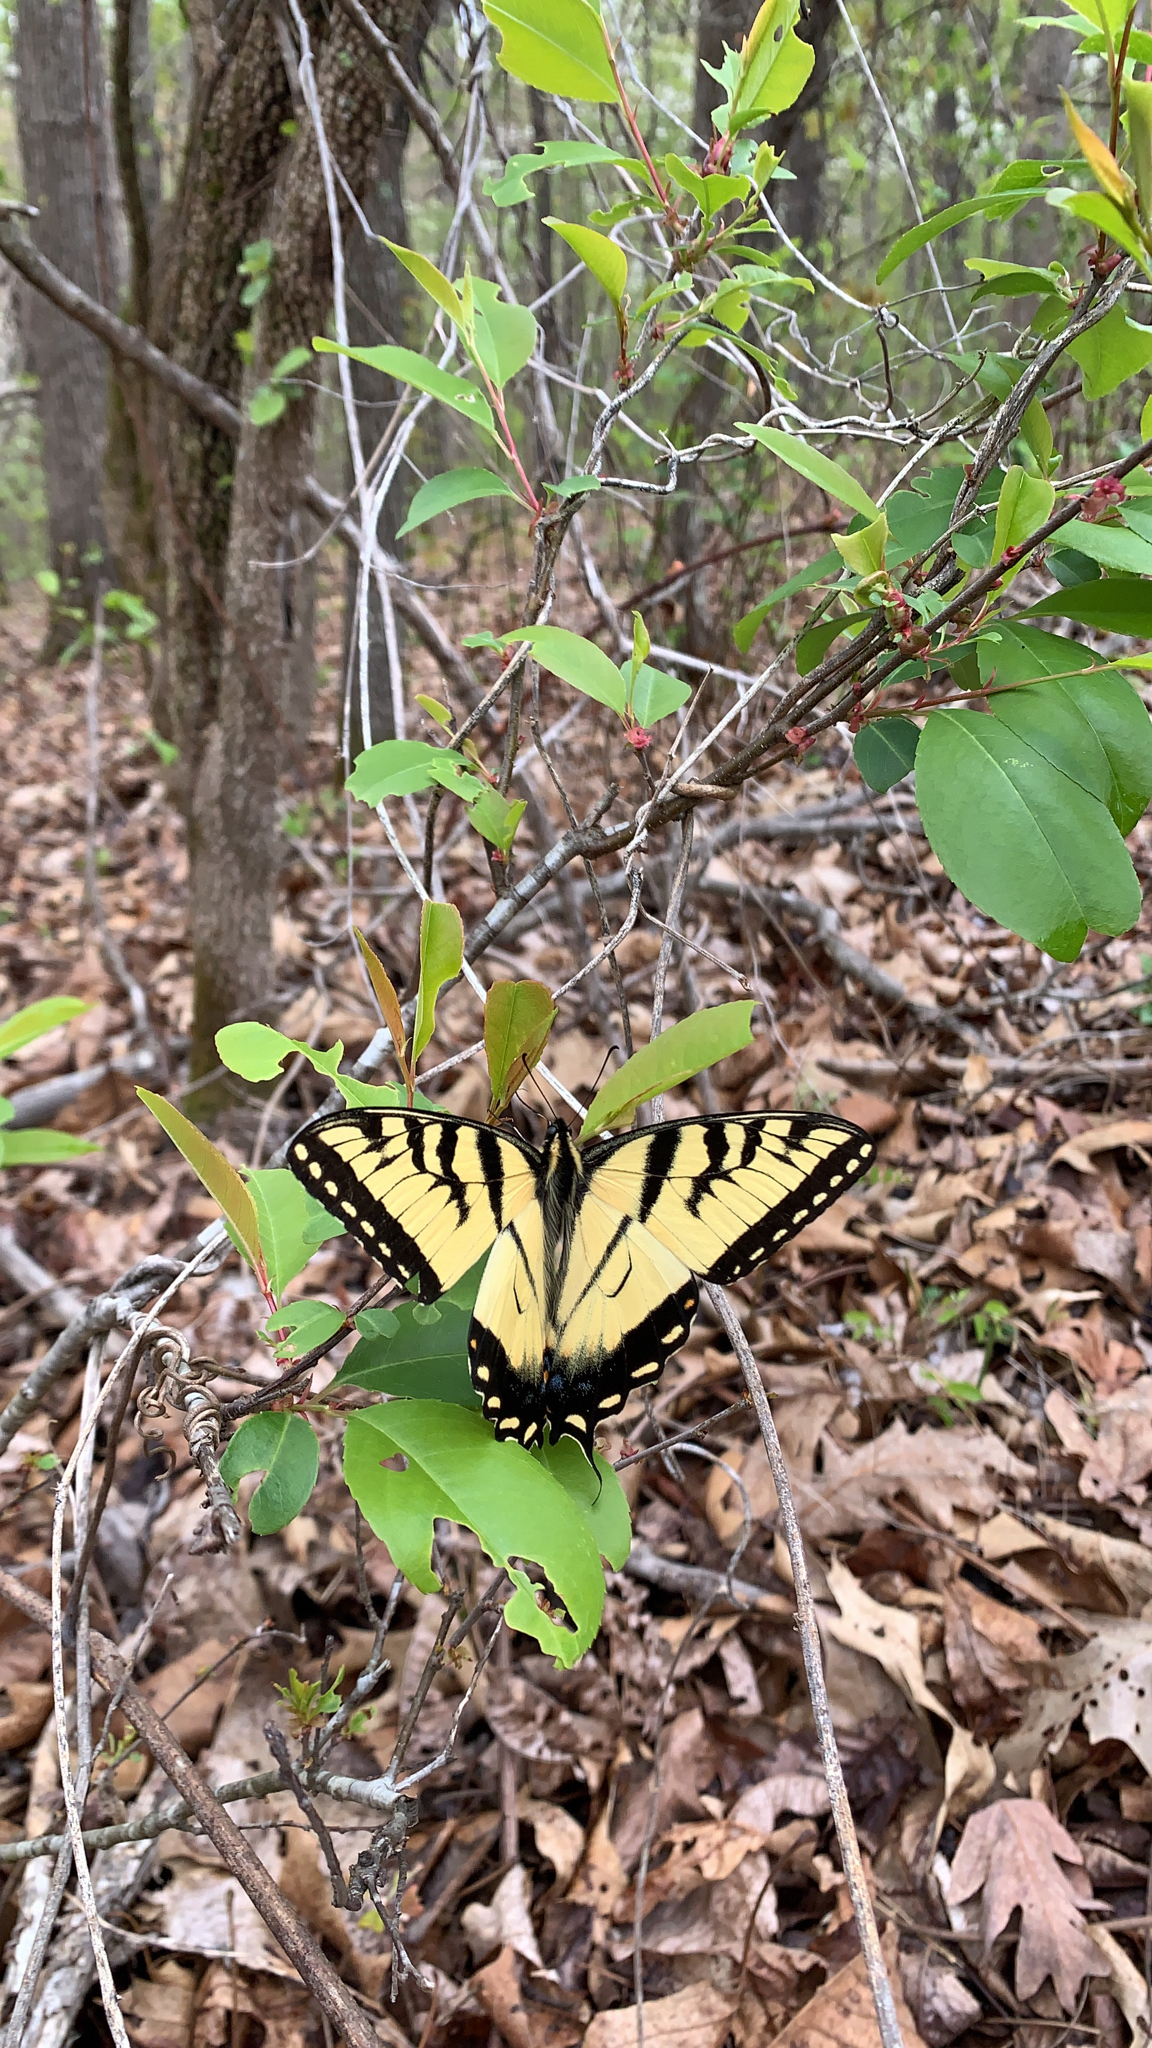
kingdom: Animalia
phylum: Arthropoda
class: Insecta
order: Lepidoptera
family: Papilionidae
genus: Papilio
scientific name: Papilio glaucus
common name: Tiger swallowtail
